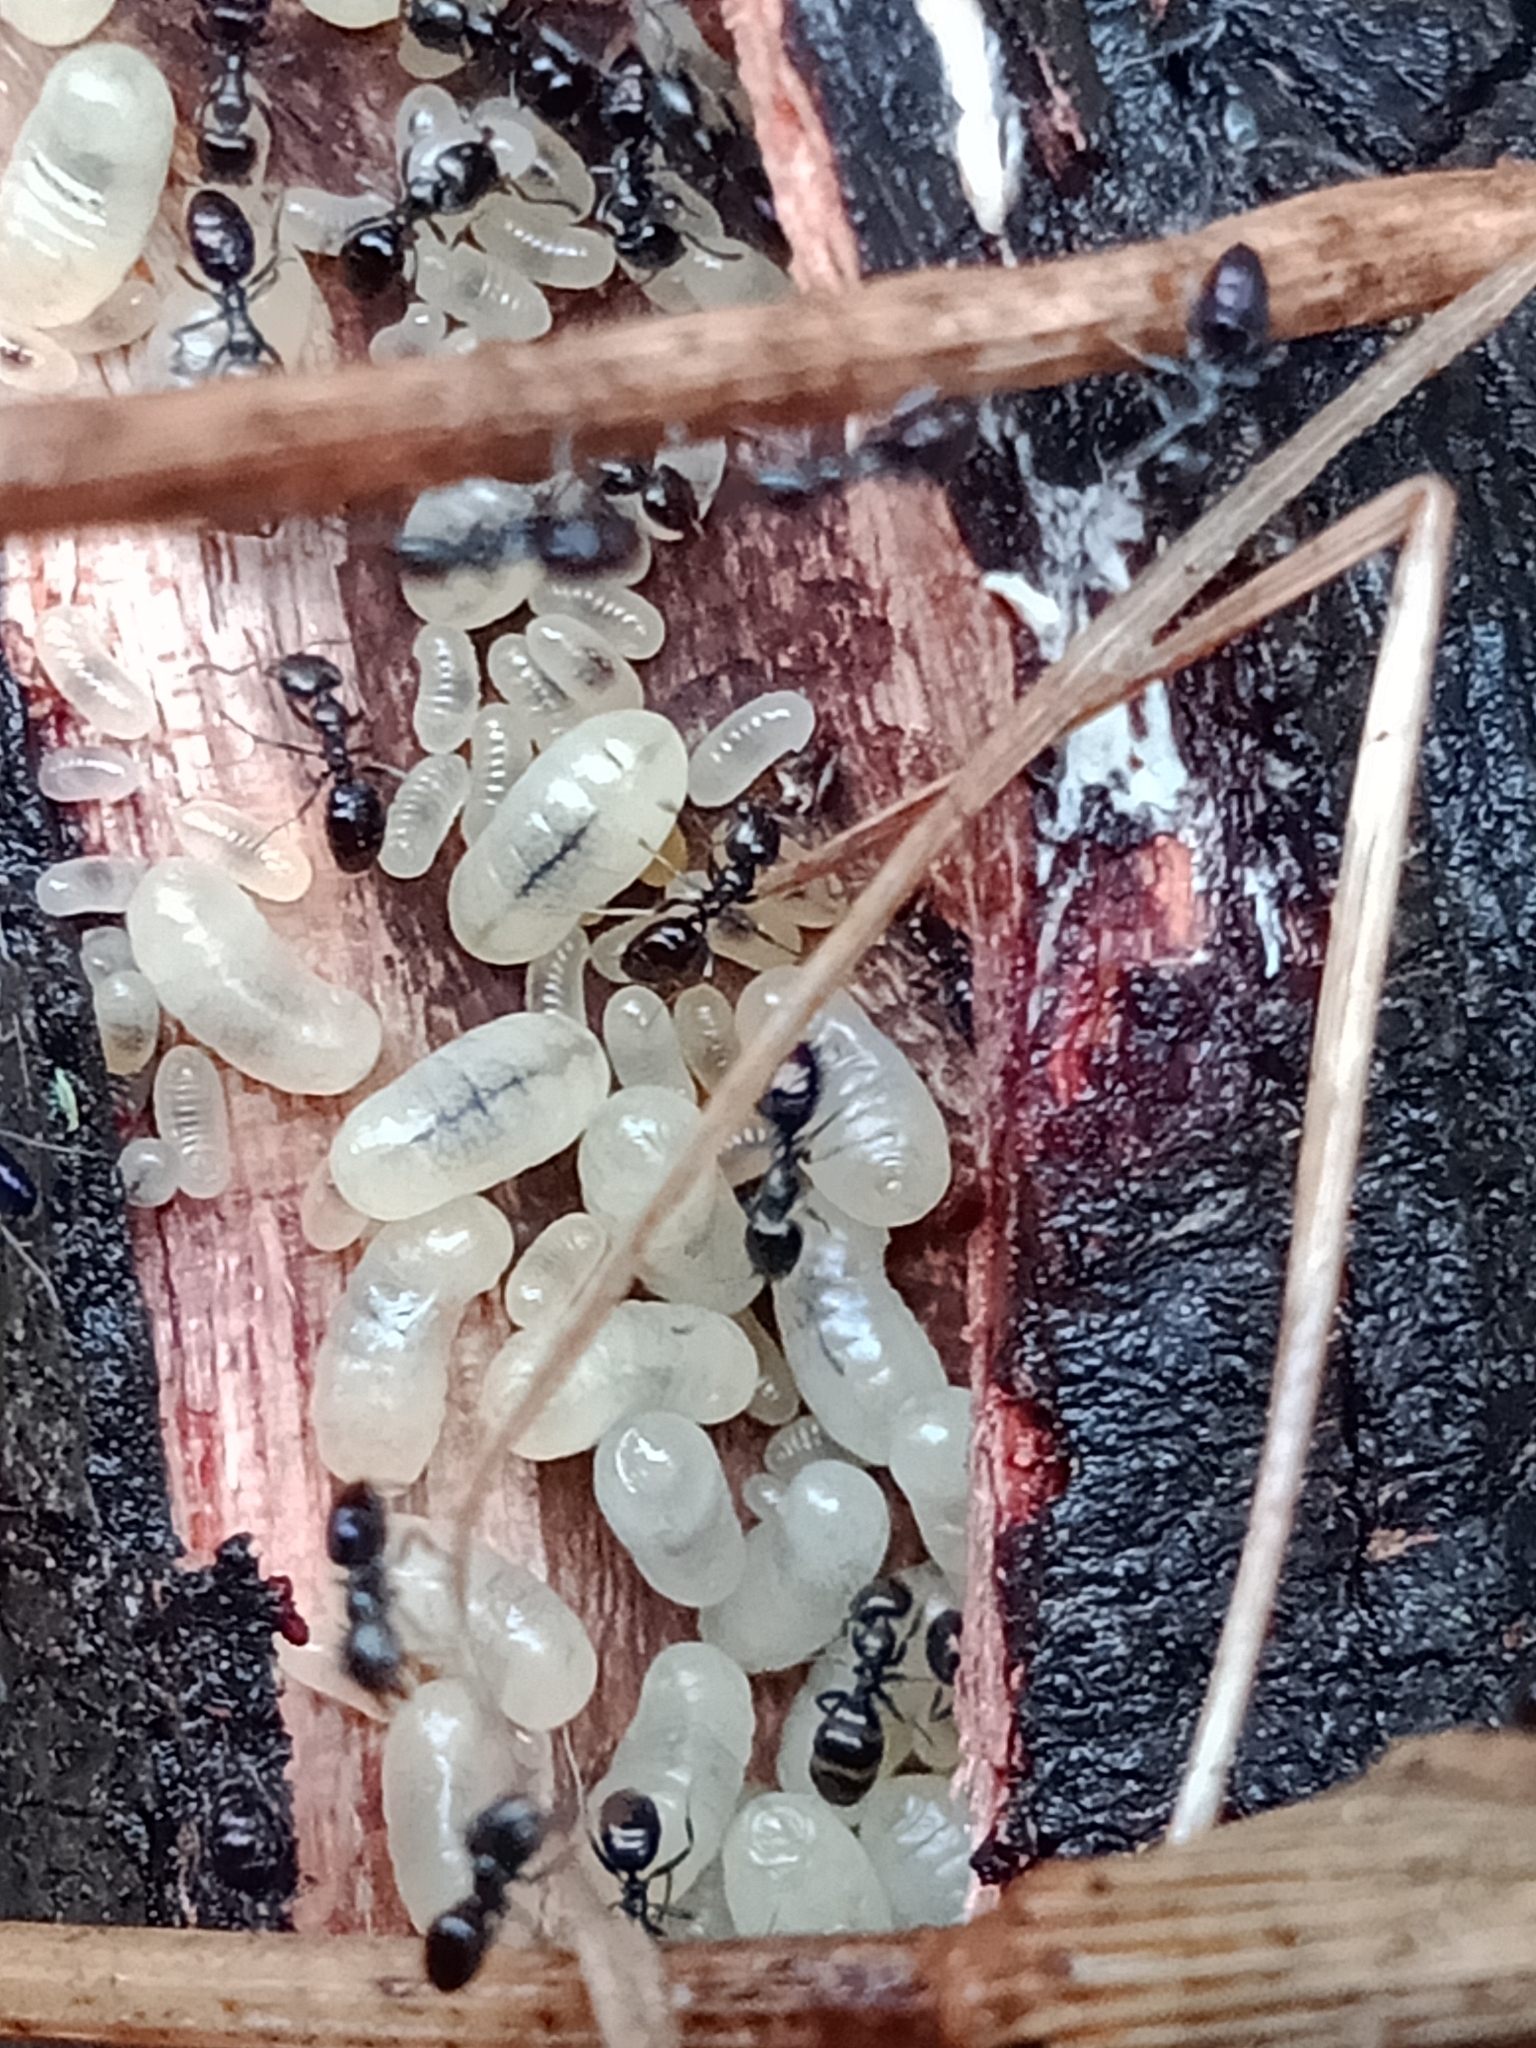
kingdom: Animalia
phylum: Arthropoda
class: Insecta
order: Hymenoptera
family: Formicidae
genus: Ochetellus
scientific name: Ochetellus glaber
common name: Ant
